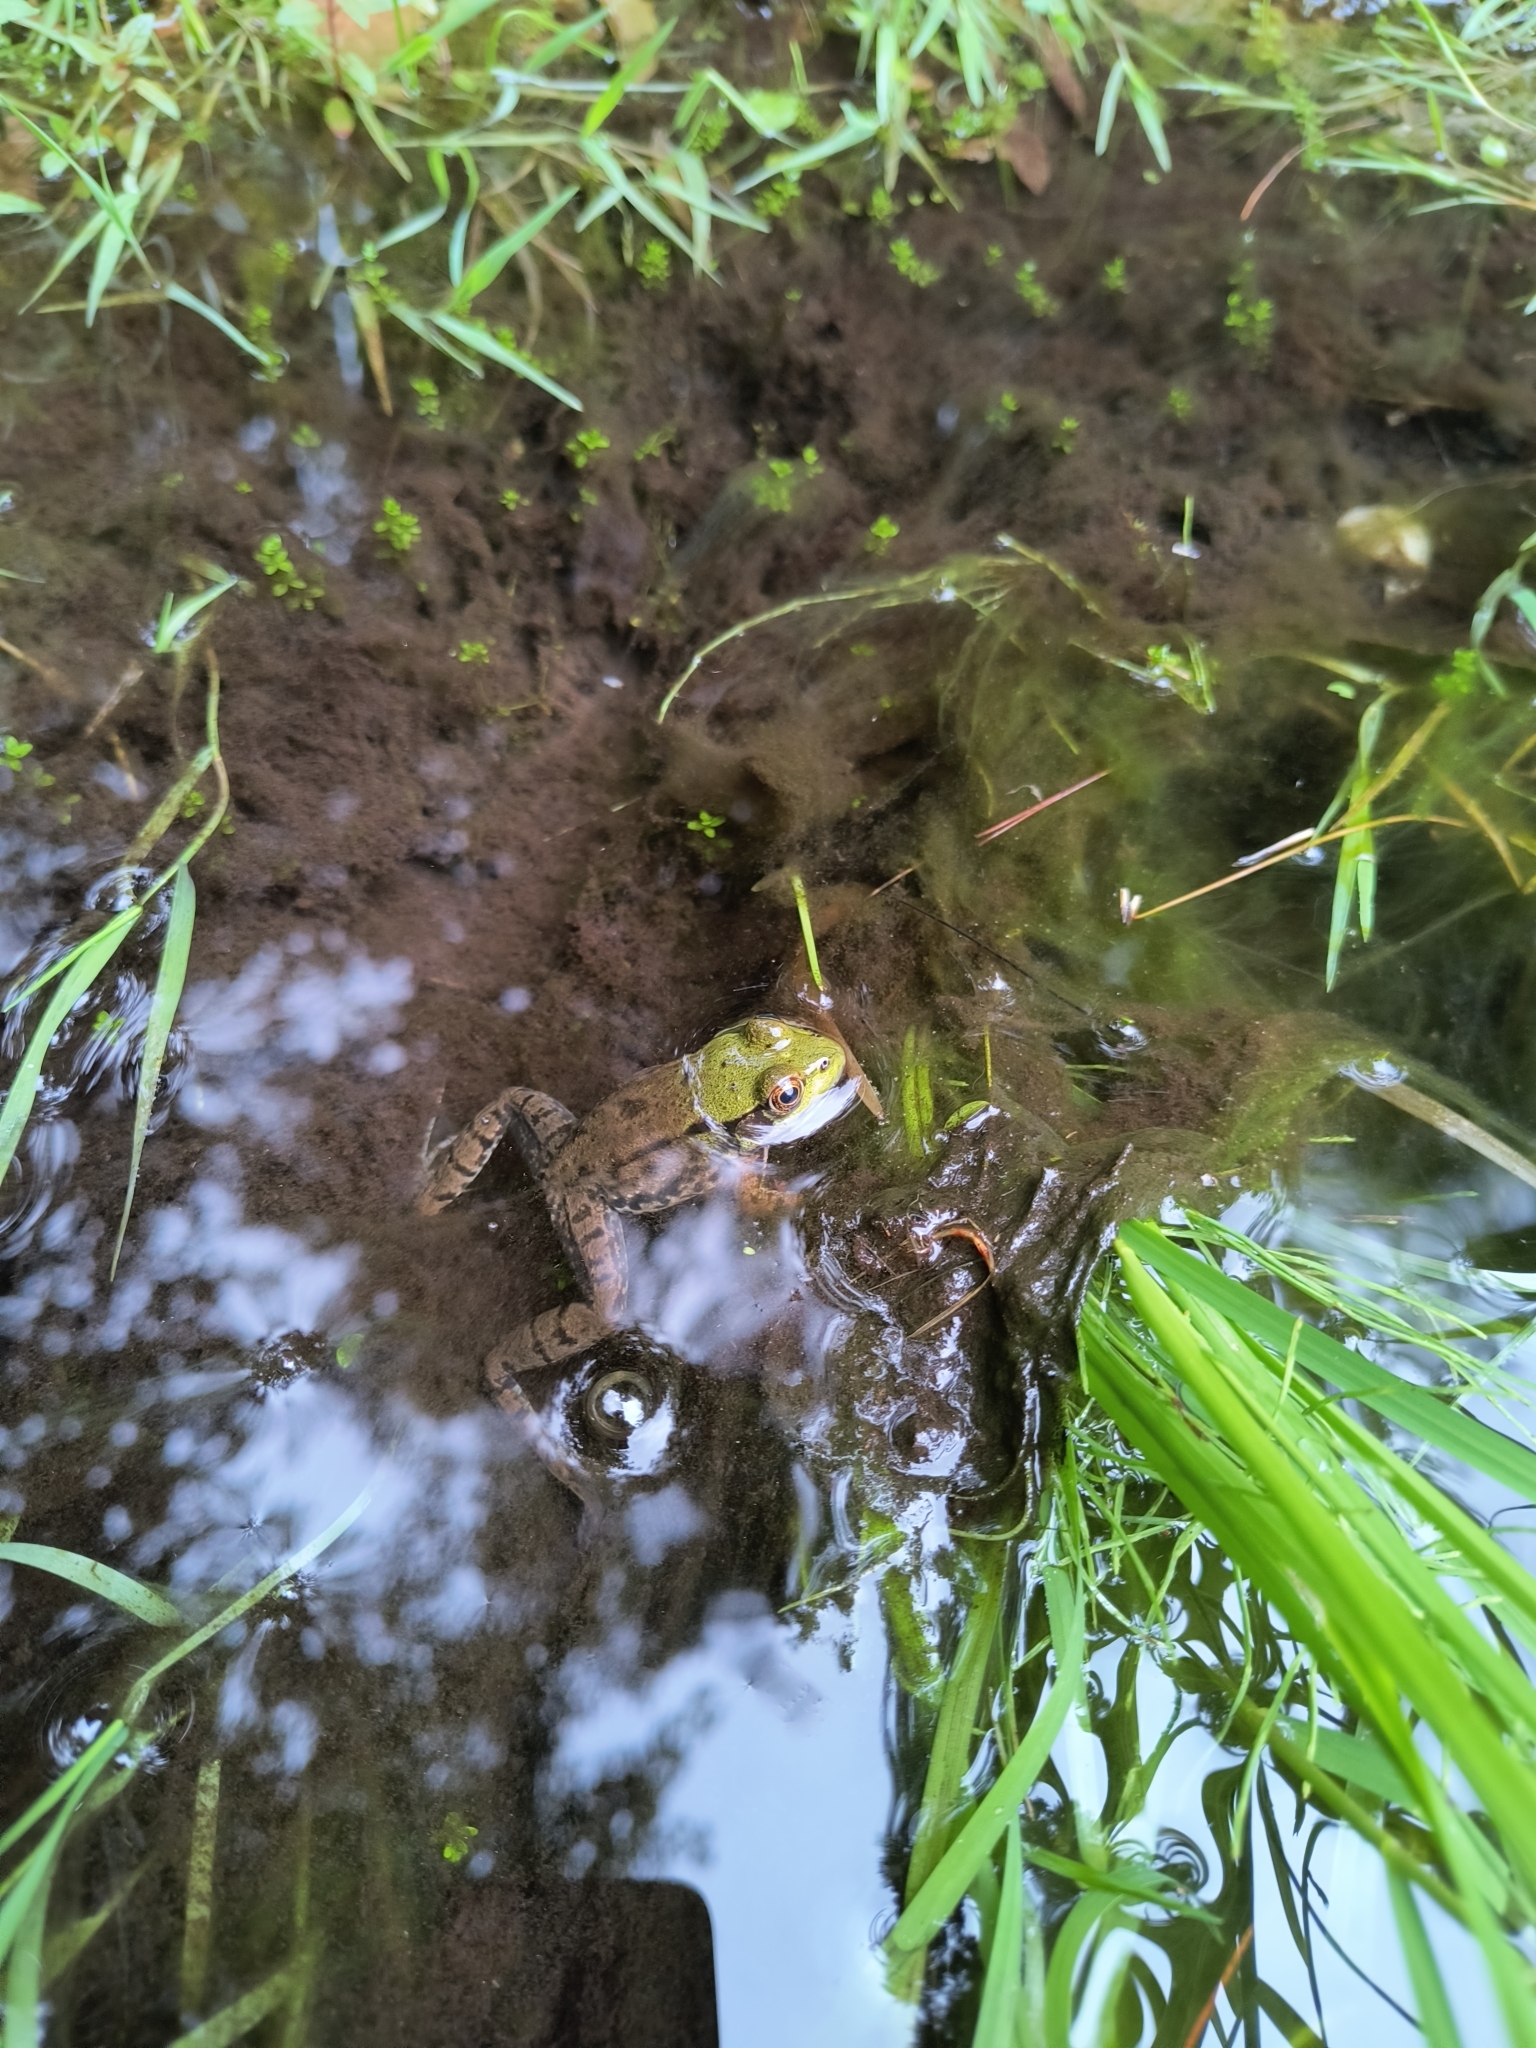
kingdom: Animalia
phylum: Chordata
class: Amphibia
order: Anura
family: Ranidae
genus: Lithobates
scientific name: Lithobates clamitans
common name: Green frog
